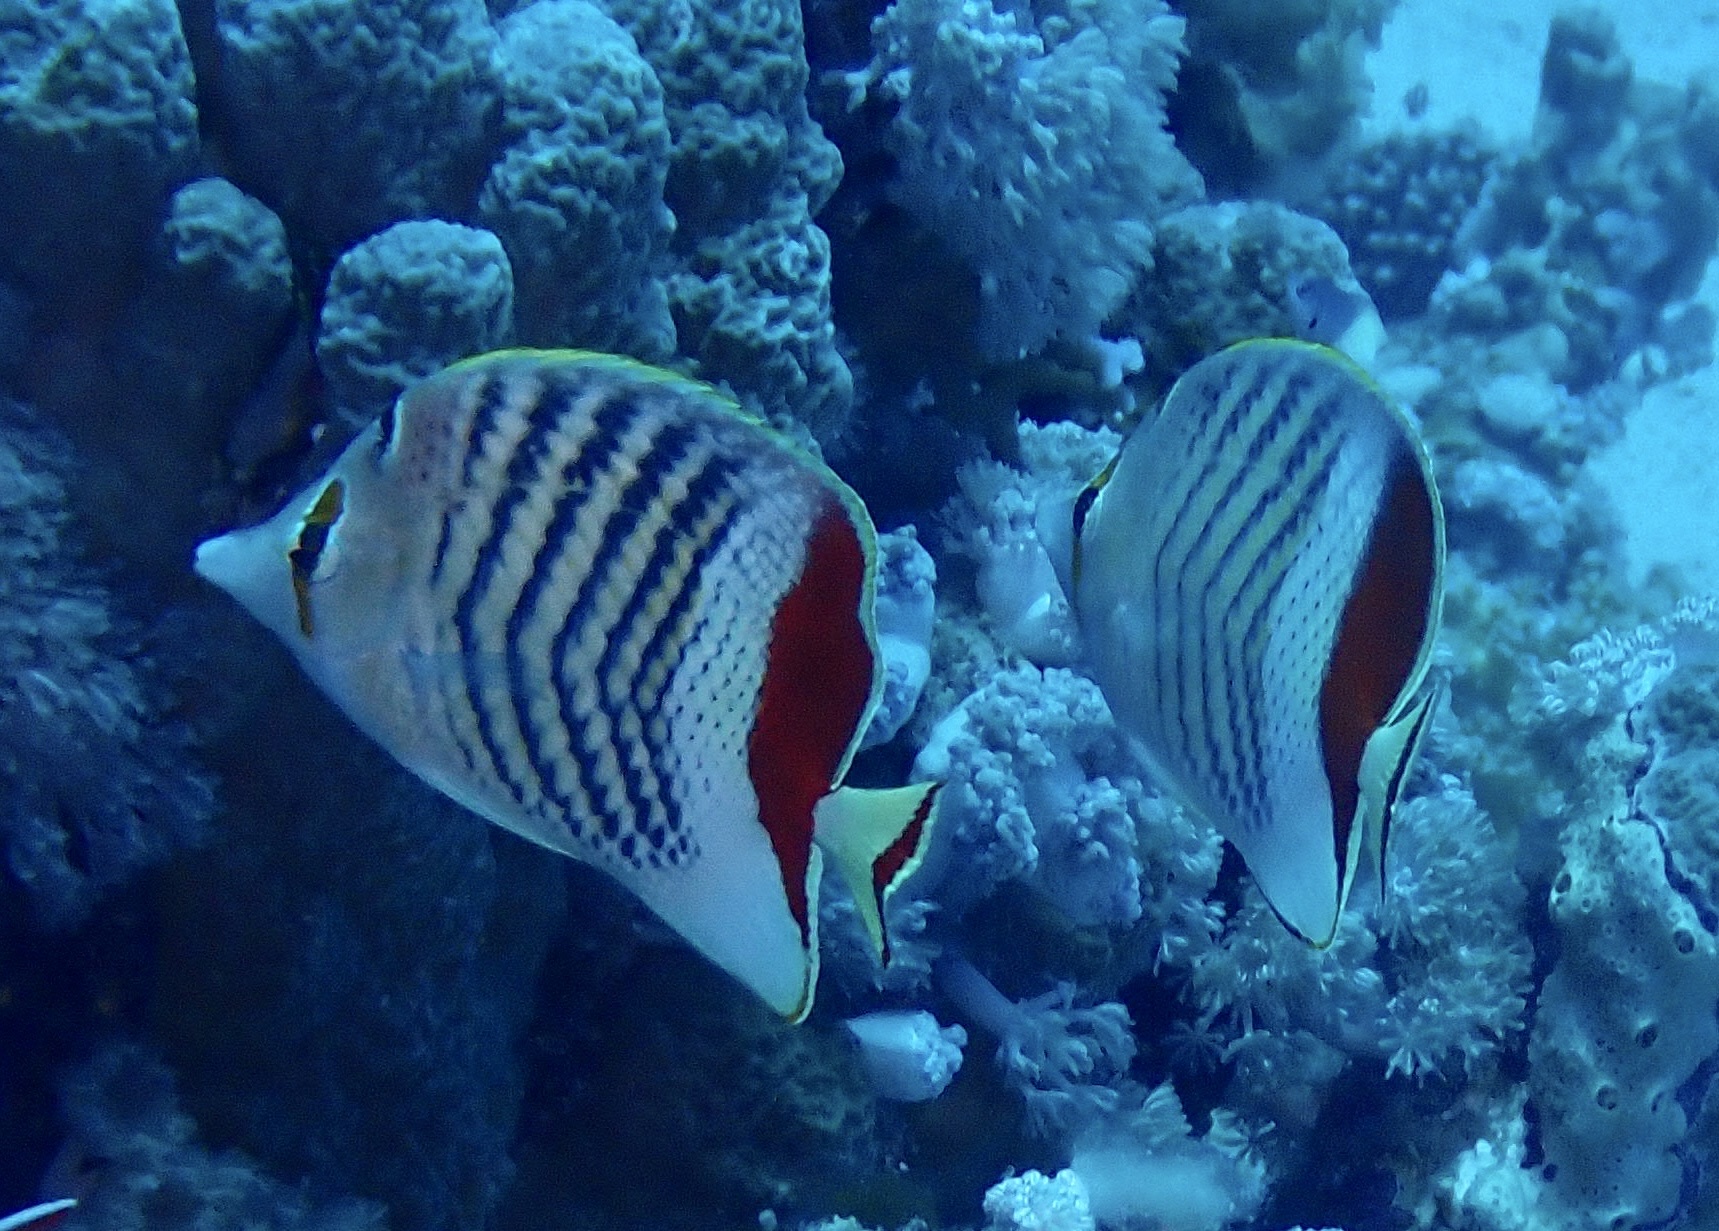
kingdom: Animalia
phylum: Chordata
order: Perciformes
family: Chaetodontidae
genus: Chaetodon
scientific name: Chaetodon paucifasciatus
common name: Crown butterflyfish
